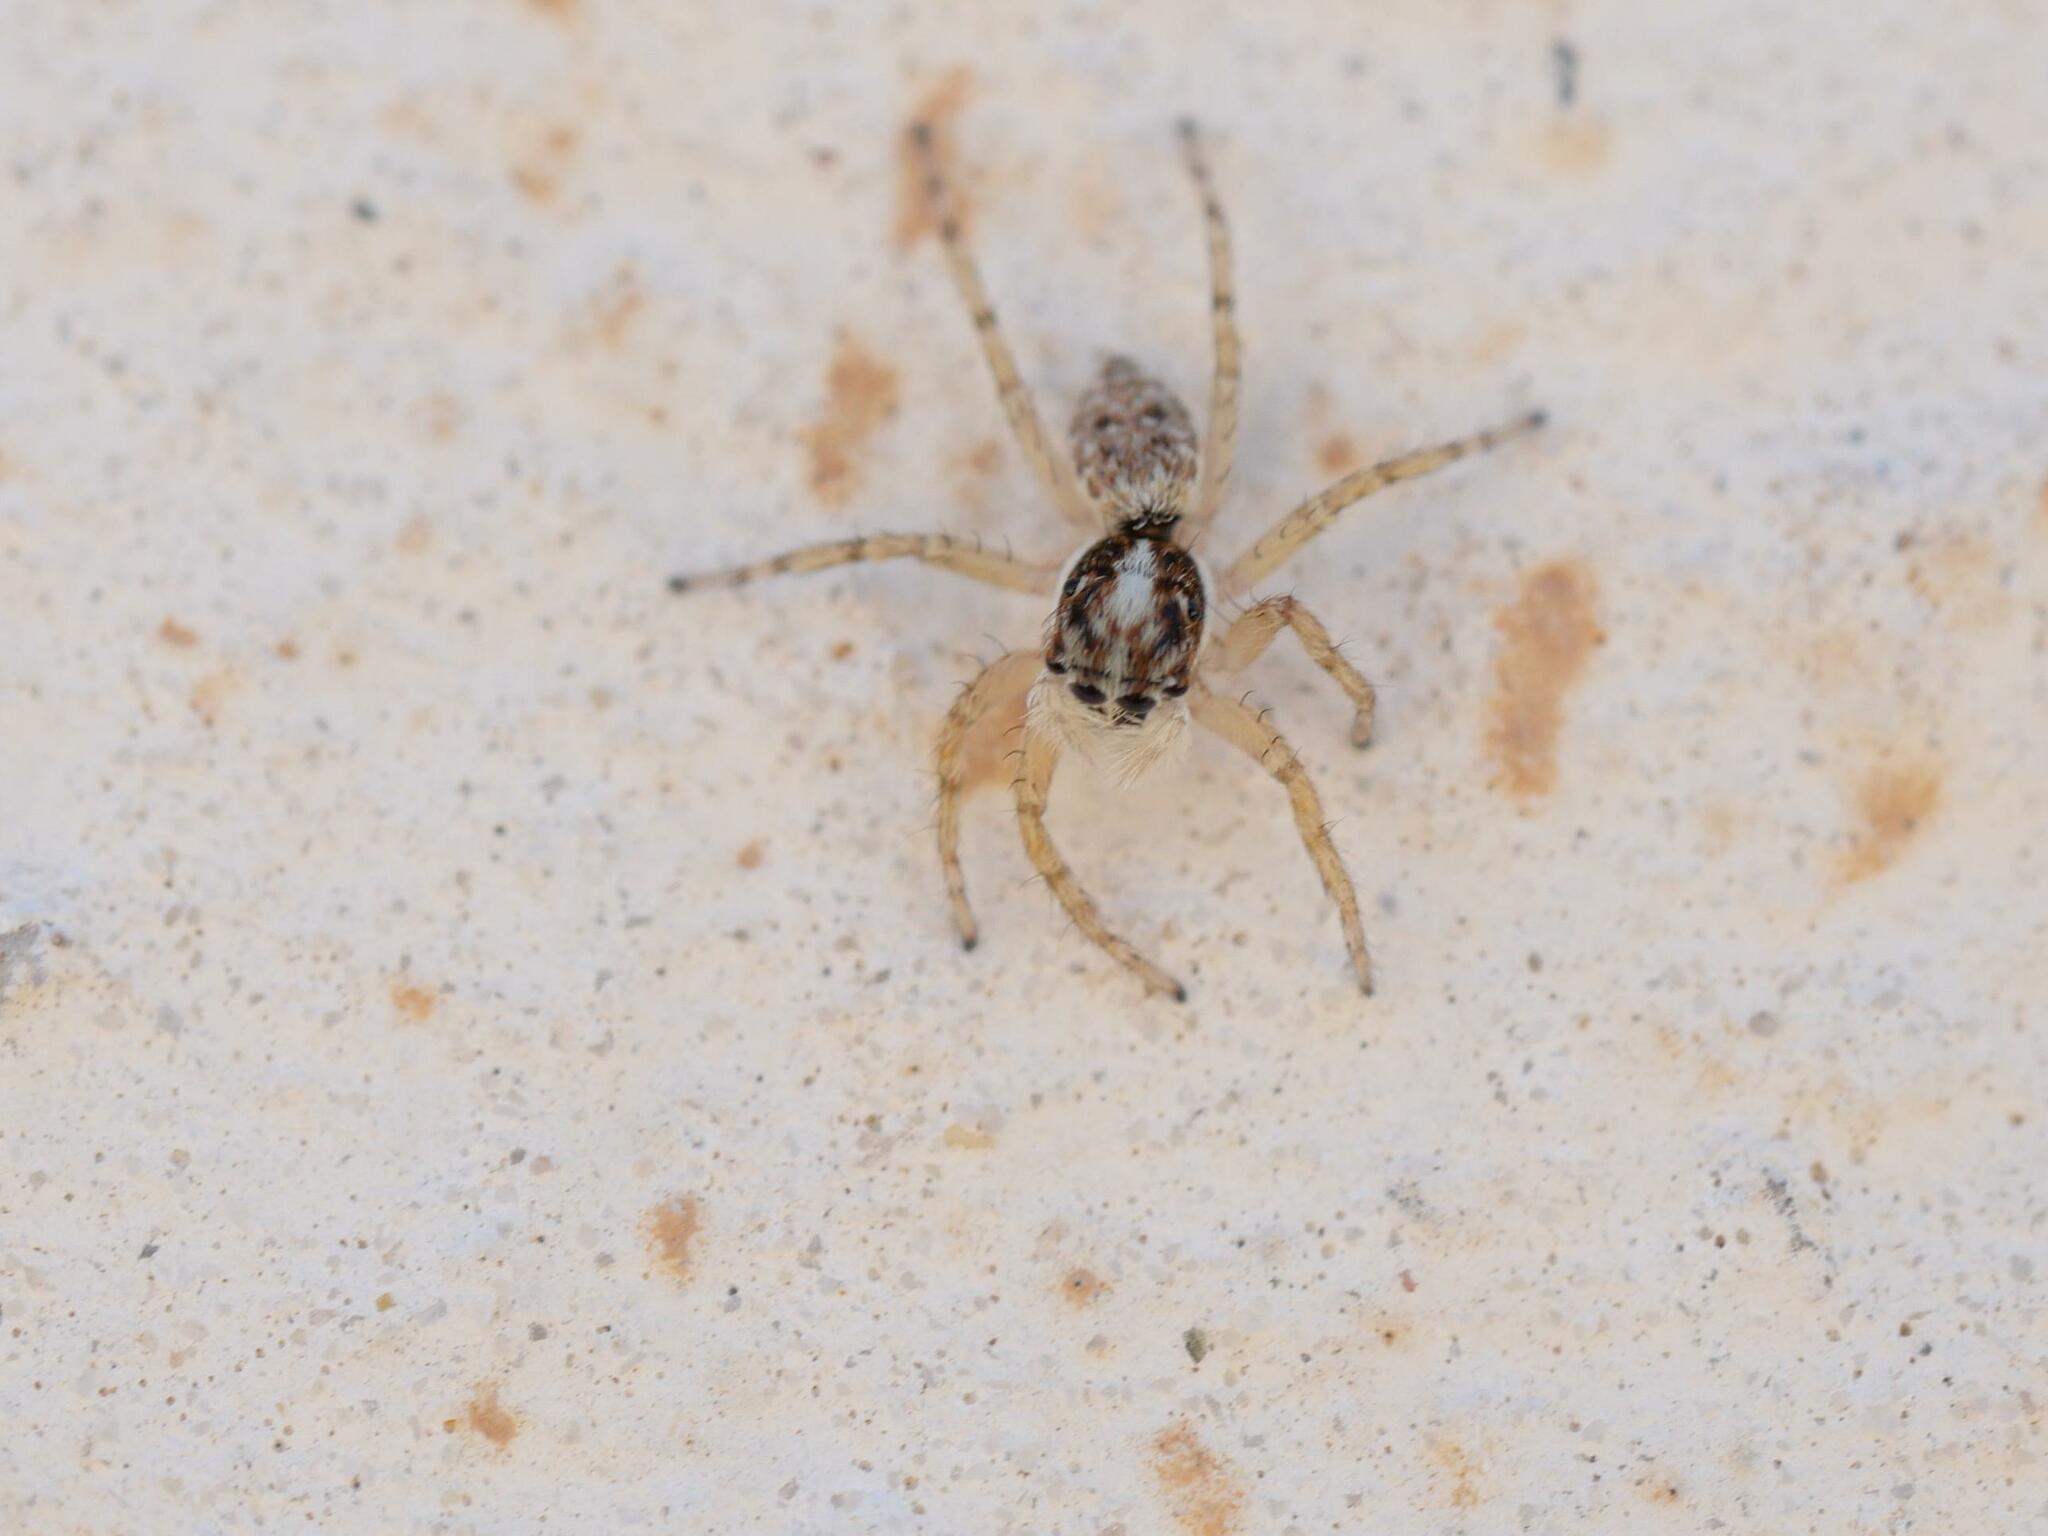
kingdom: Animalia
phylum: Arthropoda
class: Arachnida
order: Araneae
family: Salticidae
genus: Menemerus
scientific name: Menemerus semilimbatus
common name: Jumping spider
